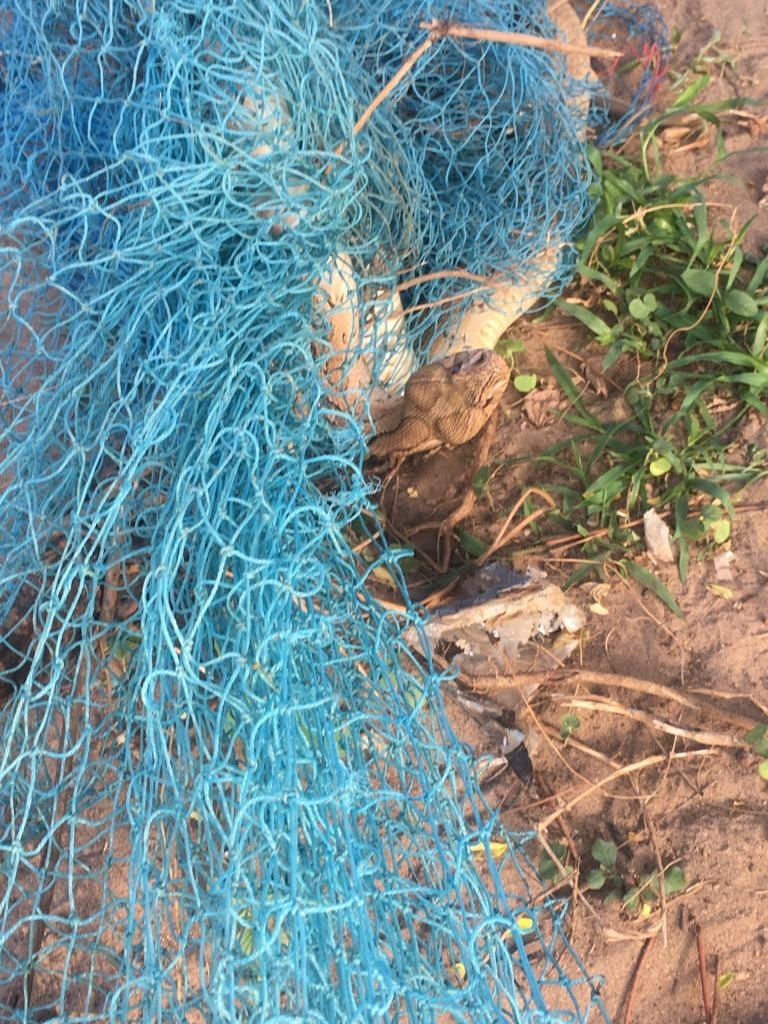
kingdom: Animalia
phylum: Chordata
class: Squamata
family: Viperidae
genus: Daboia
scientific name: Daboia russelii
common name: Western russel’s viper
